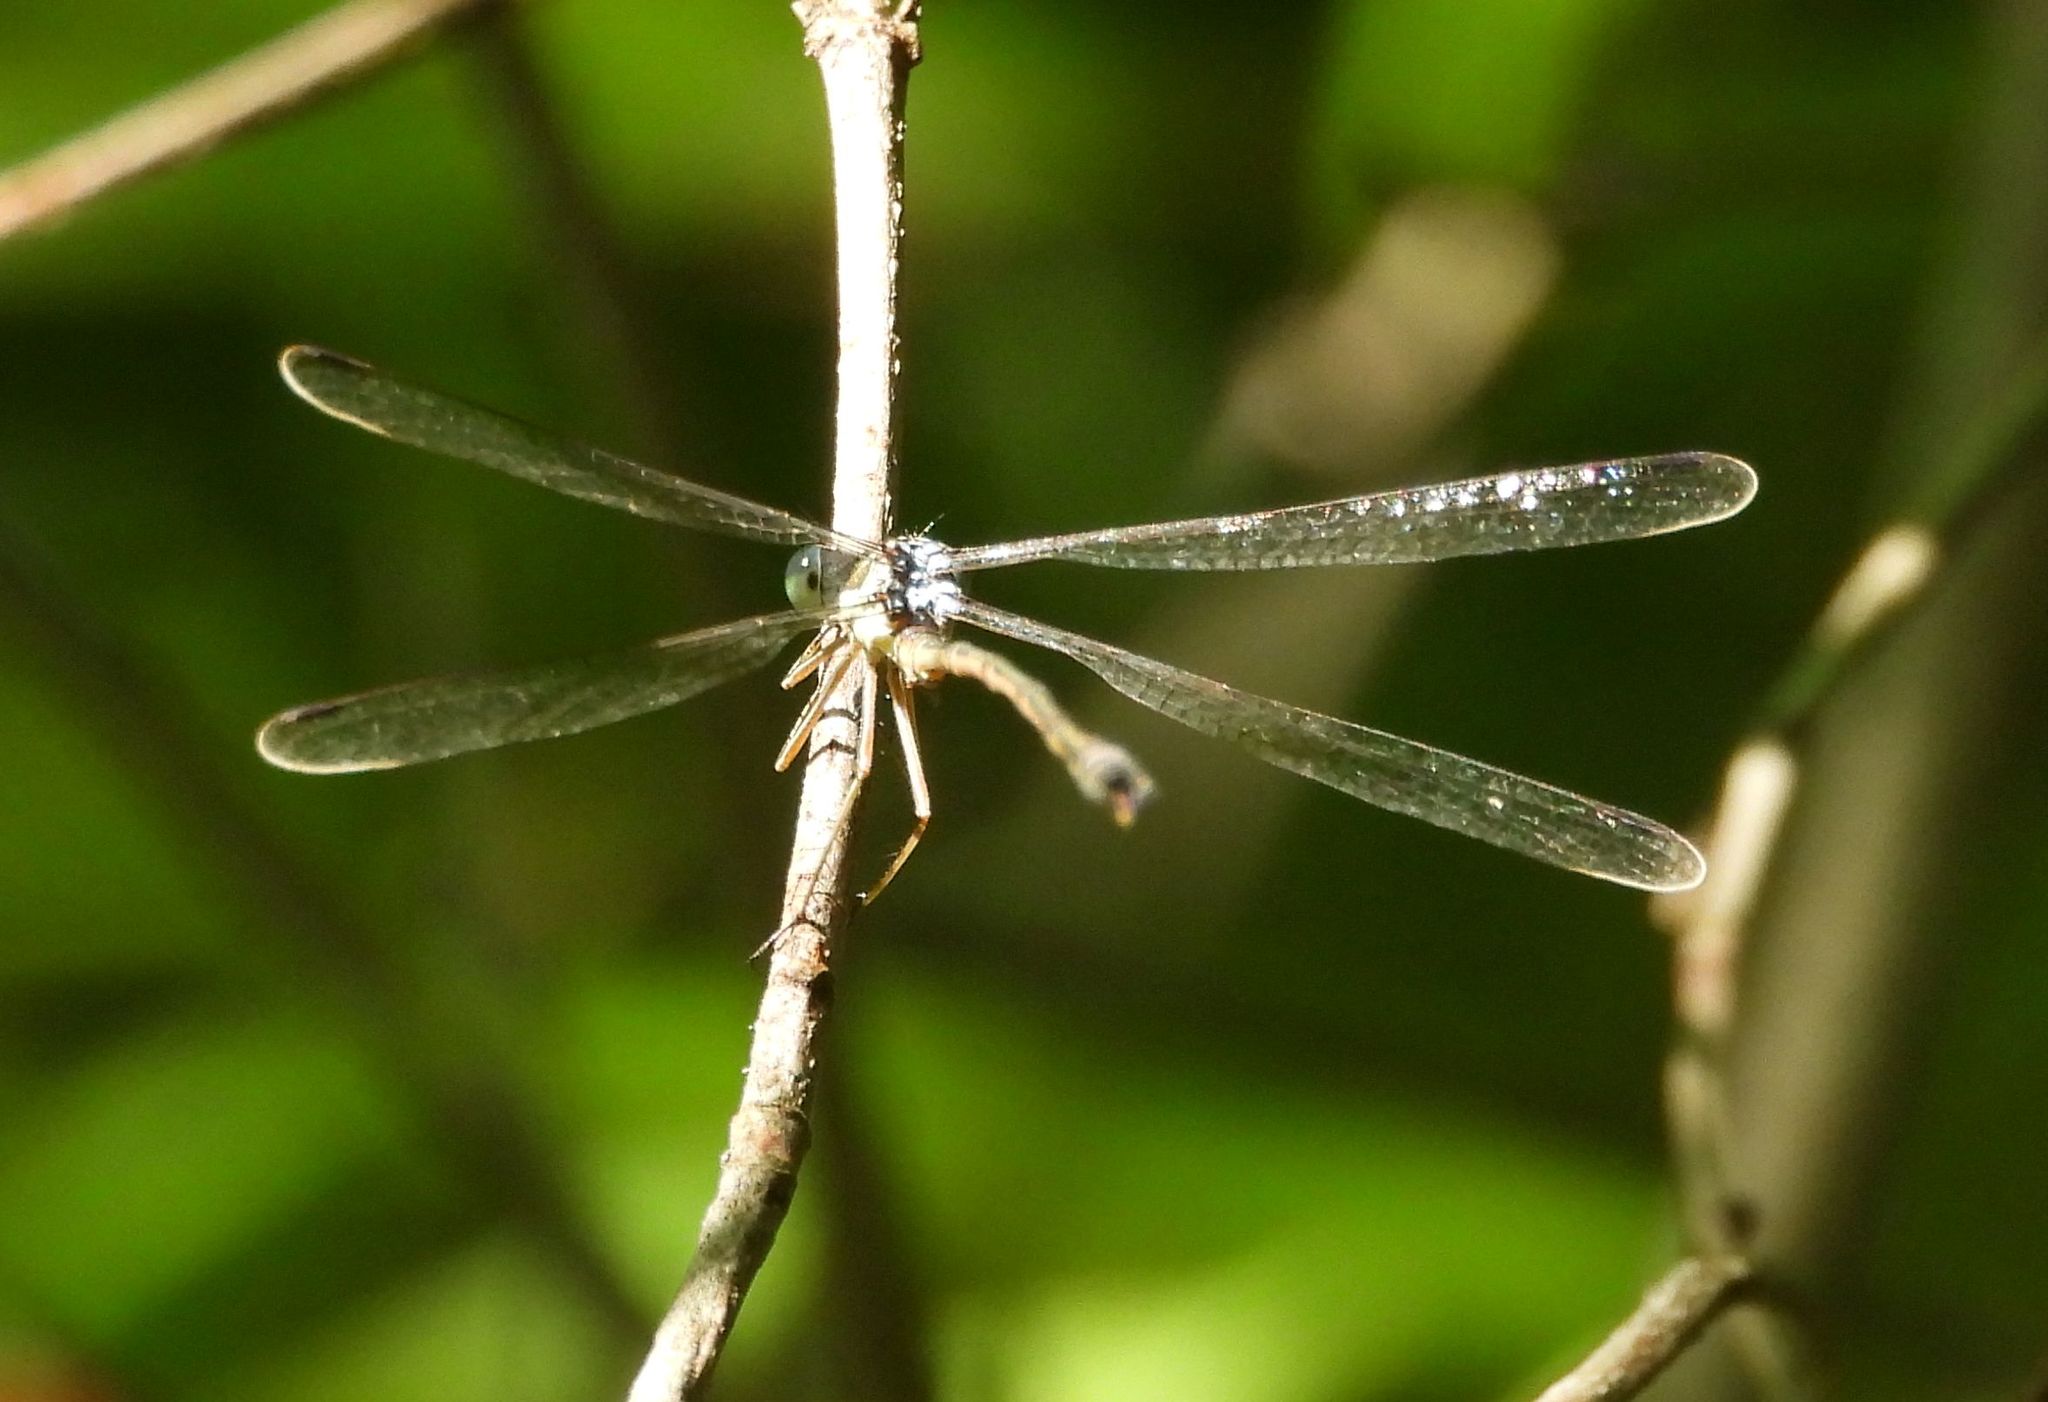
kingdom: Animalia
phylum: Arthropoda
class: Insecta
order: Odonata
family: Lestidae
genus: Lestes
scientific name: Lestes rectangularis
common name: Slender spreadwing
